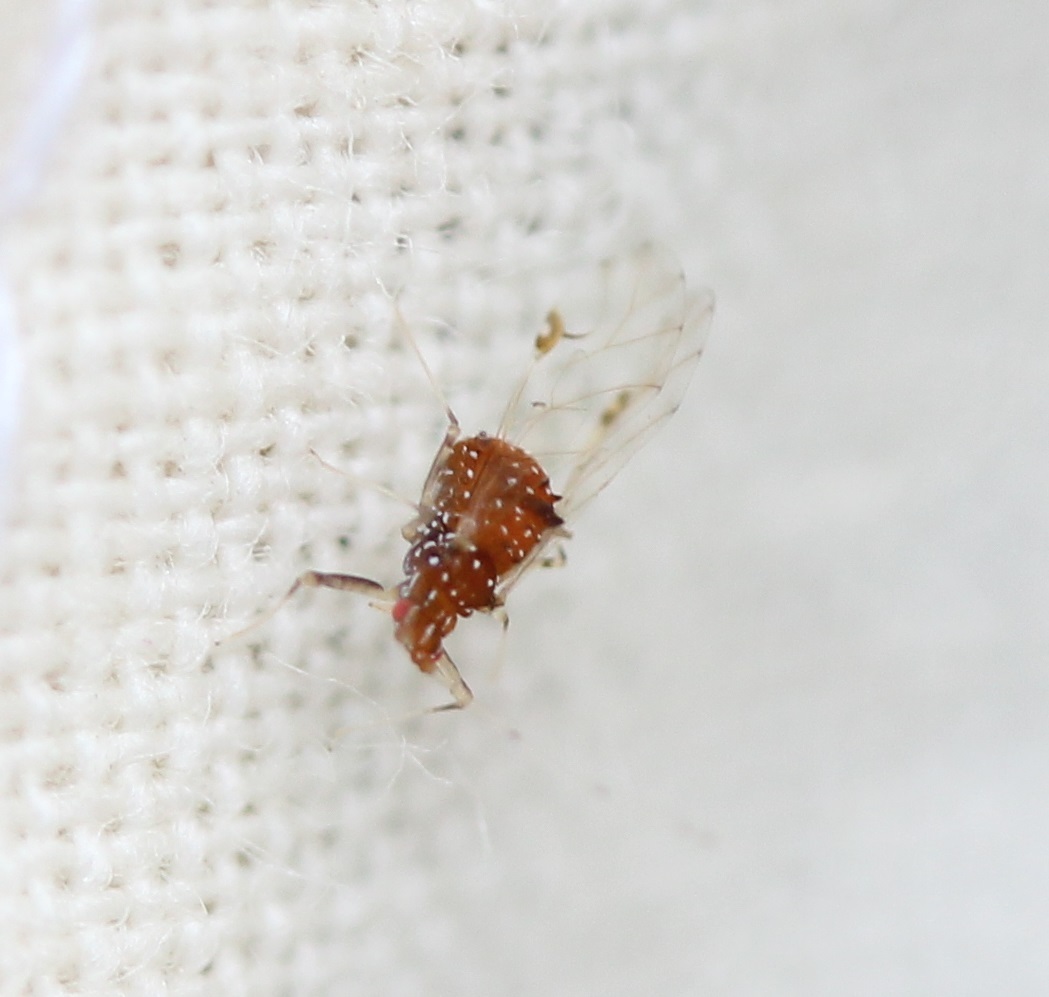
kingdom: Animalia
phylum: Arthropoda
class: Insecta
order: Hemiptera
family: Aphididae
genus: Drepanaphis
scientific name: Drepanaphis carolinensis
